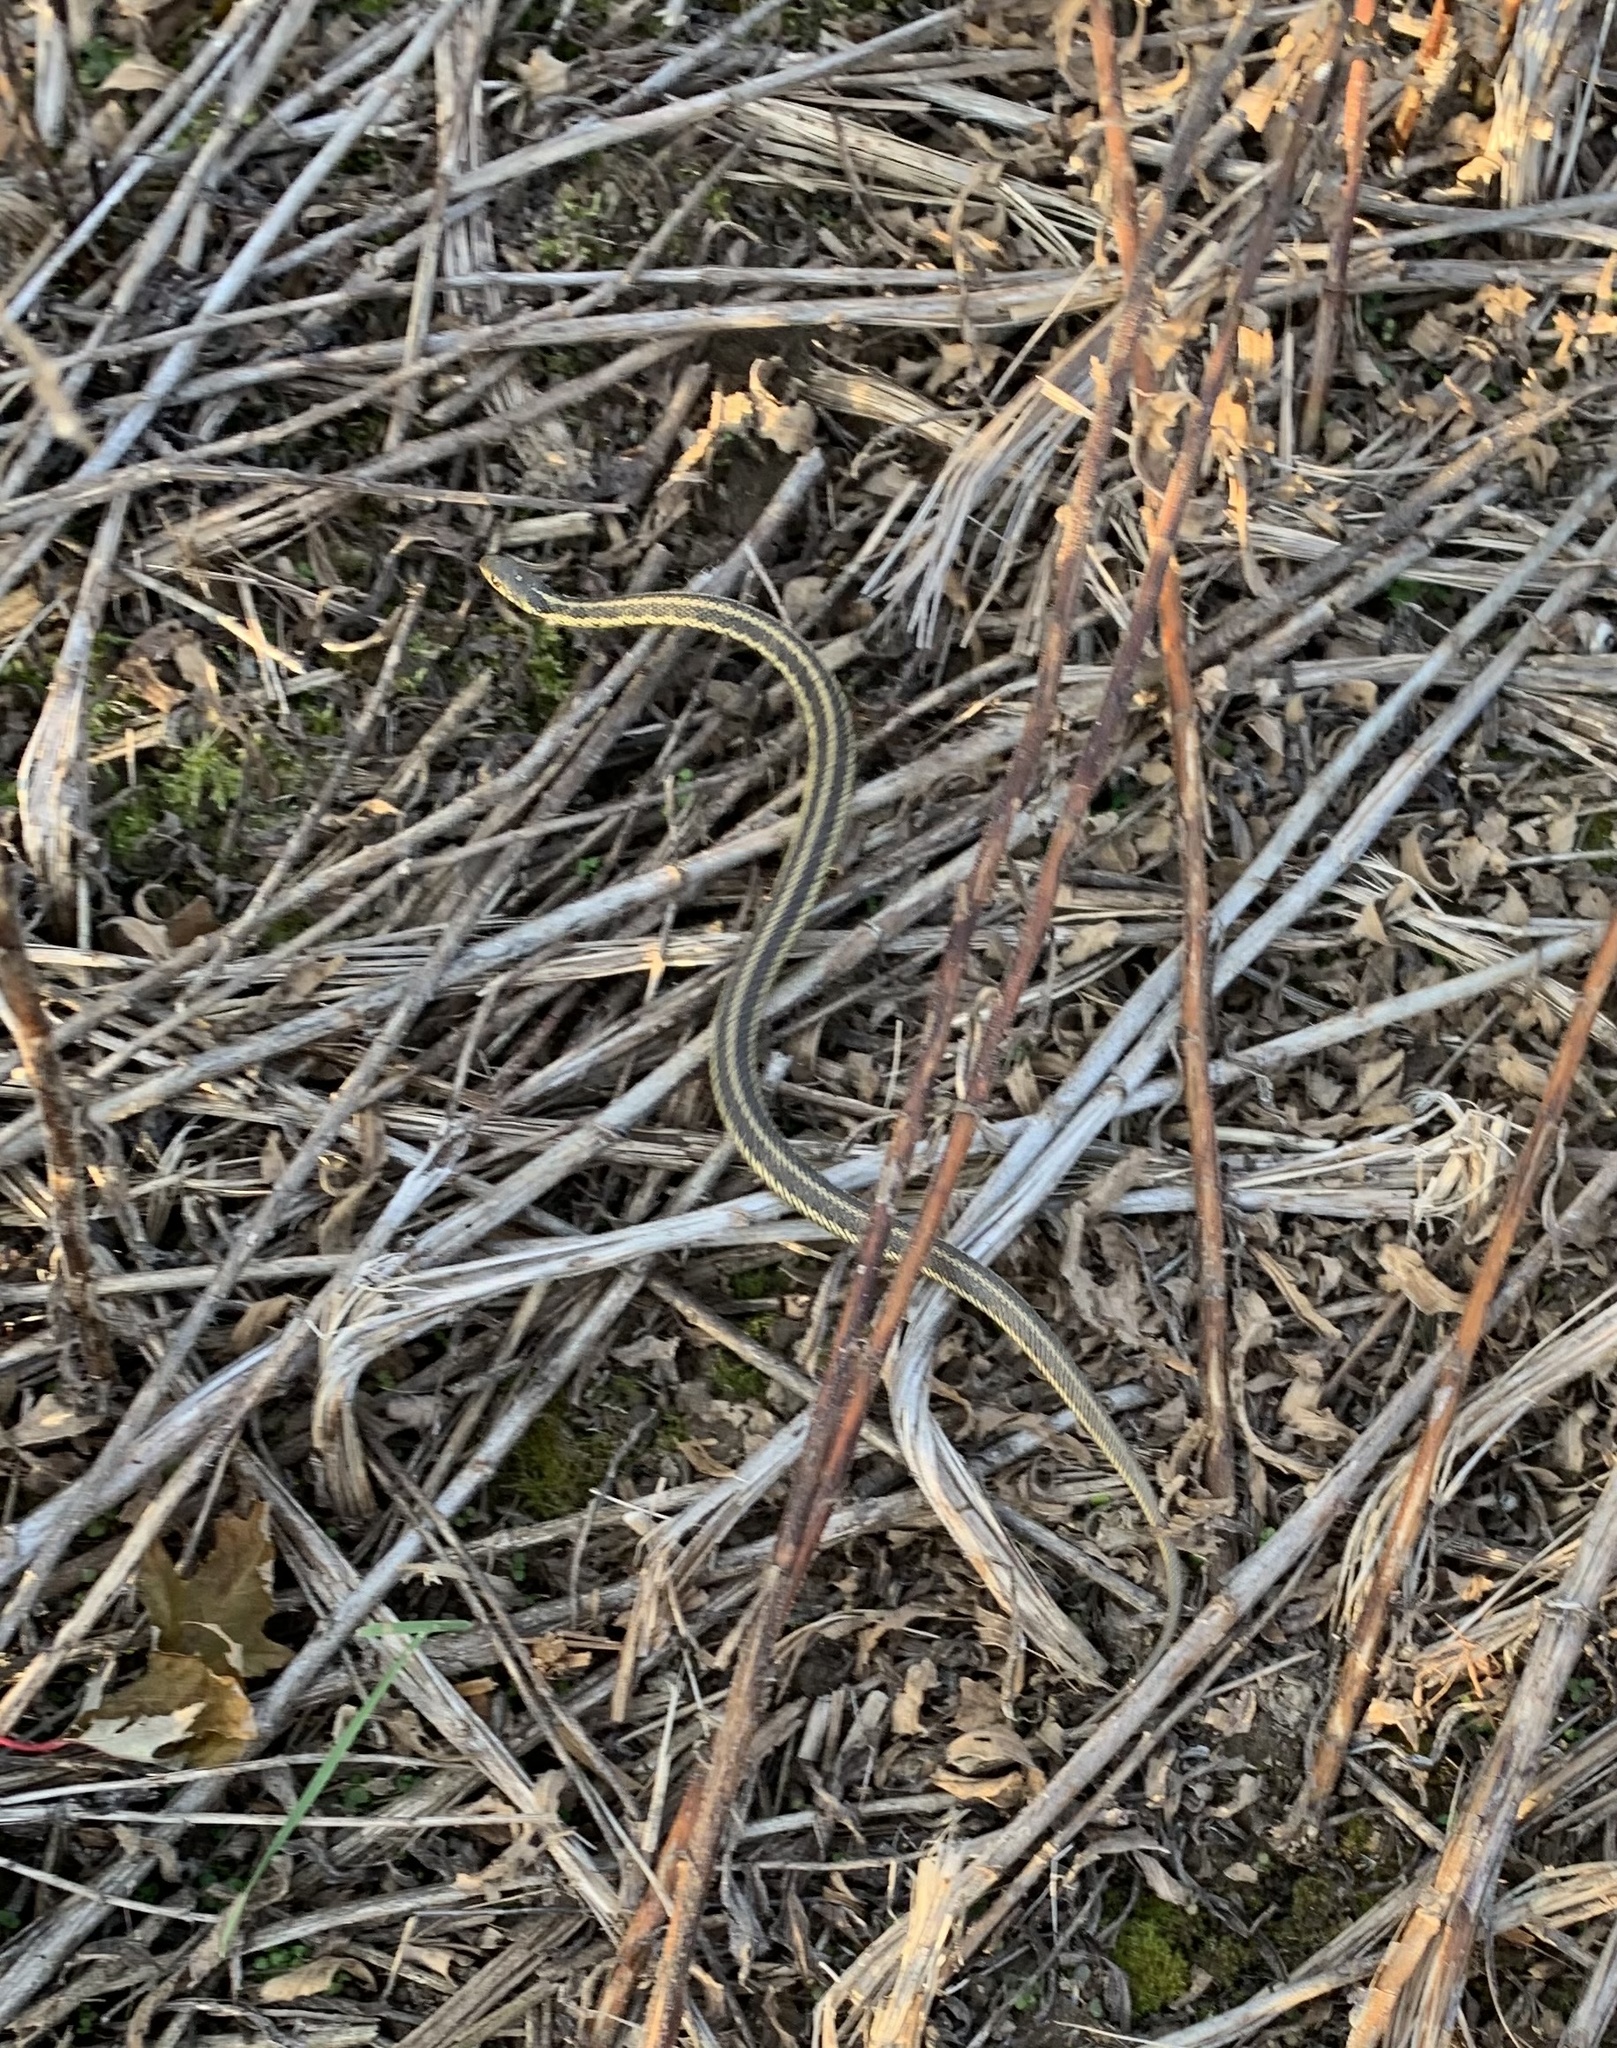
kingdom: Animalia
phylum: Chordata
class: Squamata
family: Colubridae
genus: Thamnophis
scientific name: Thamnophis sirtalis
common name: Common garter snake
